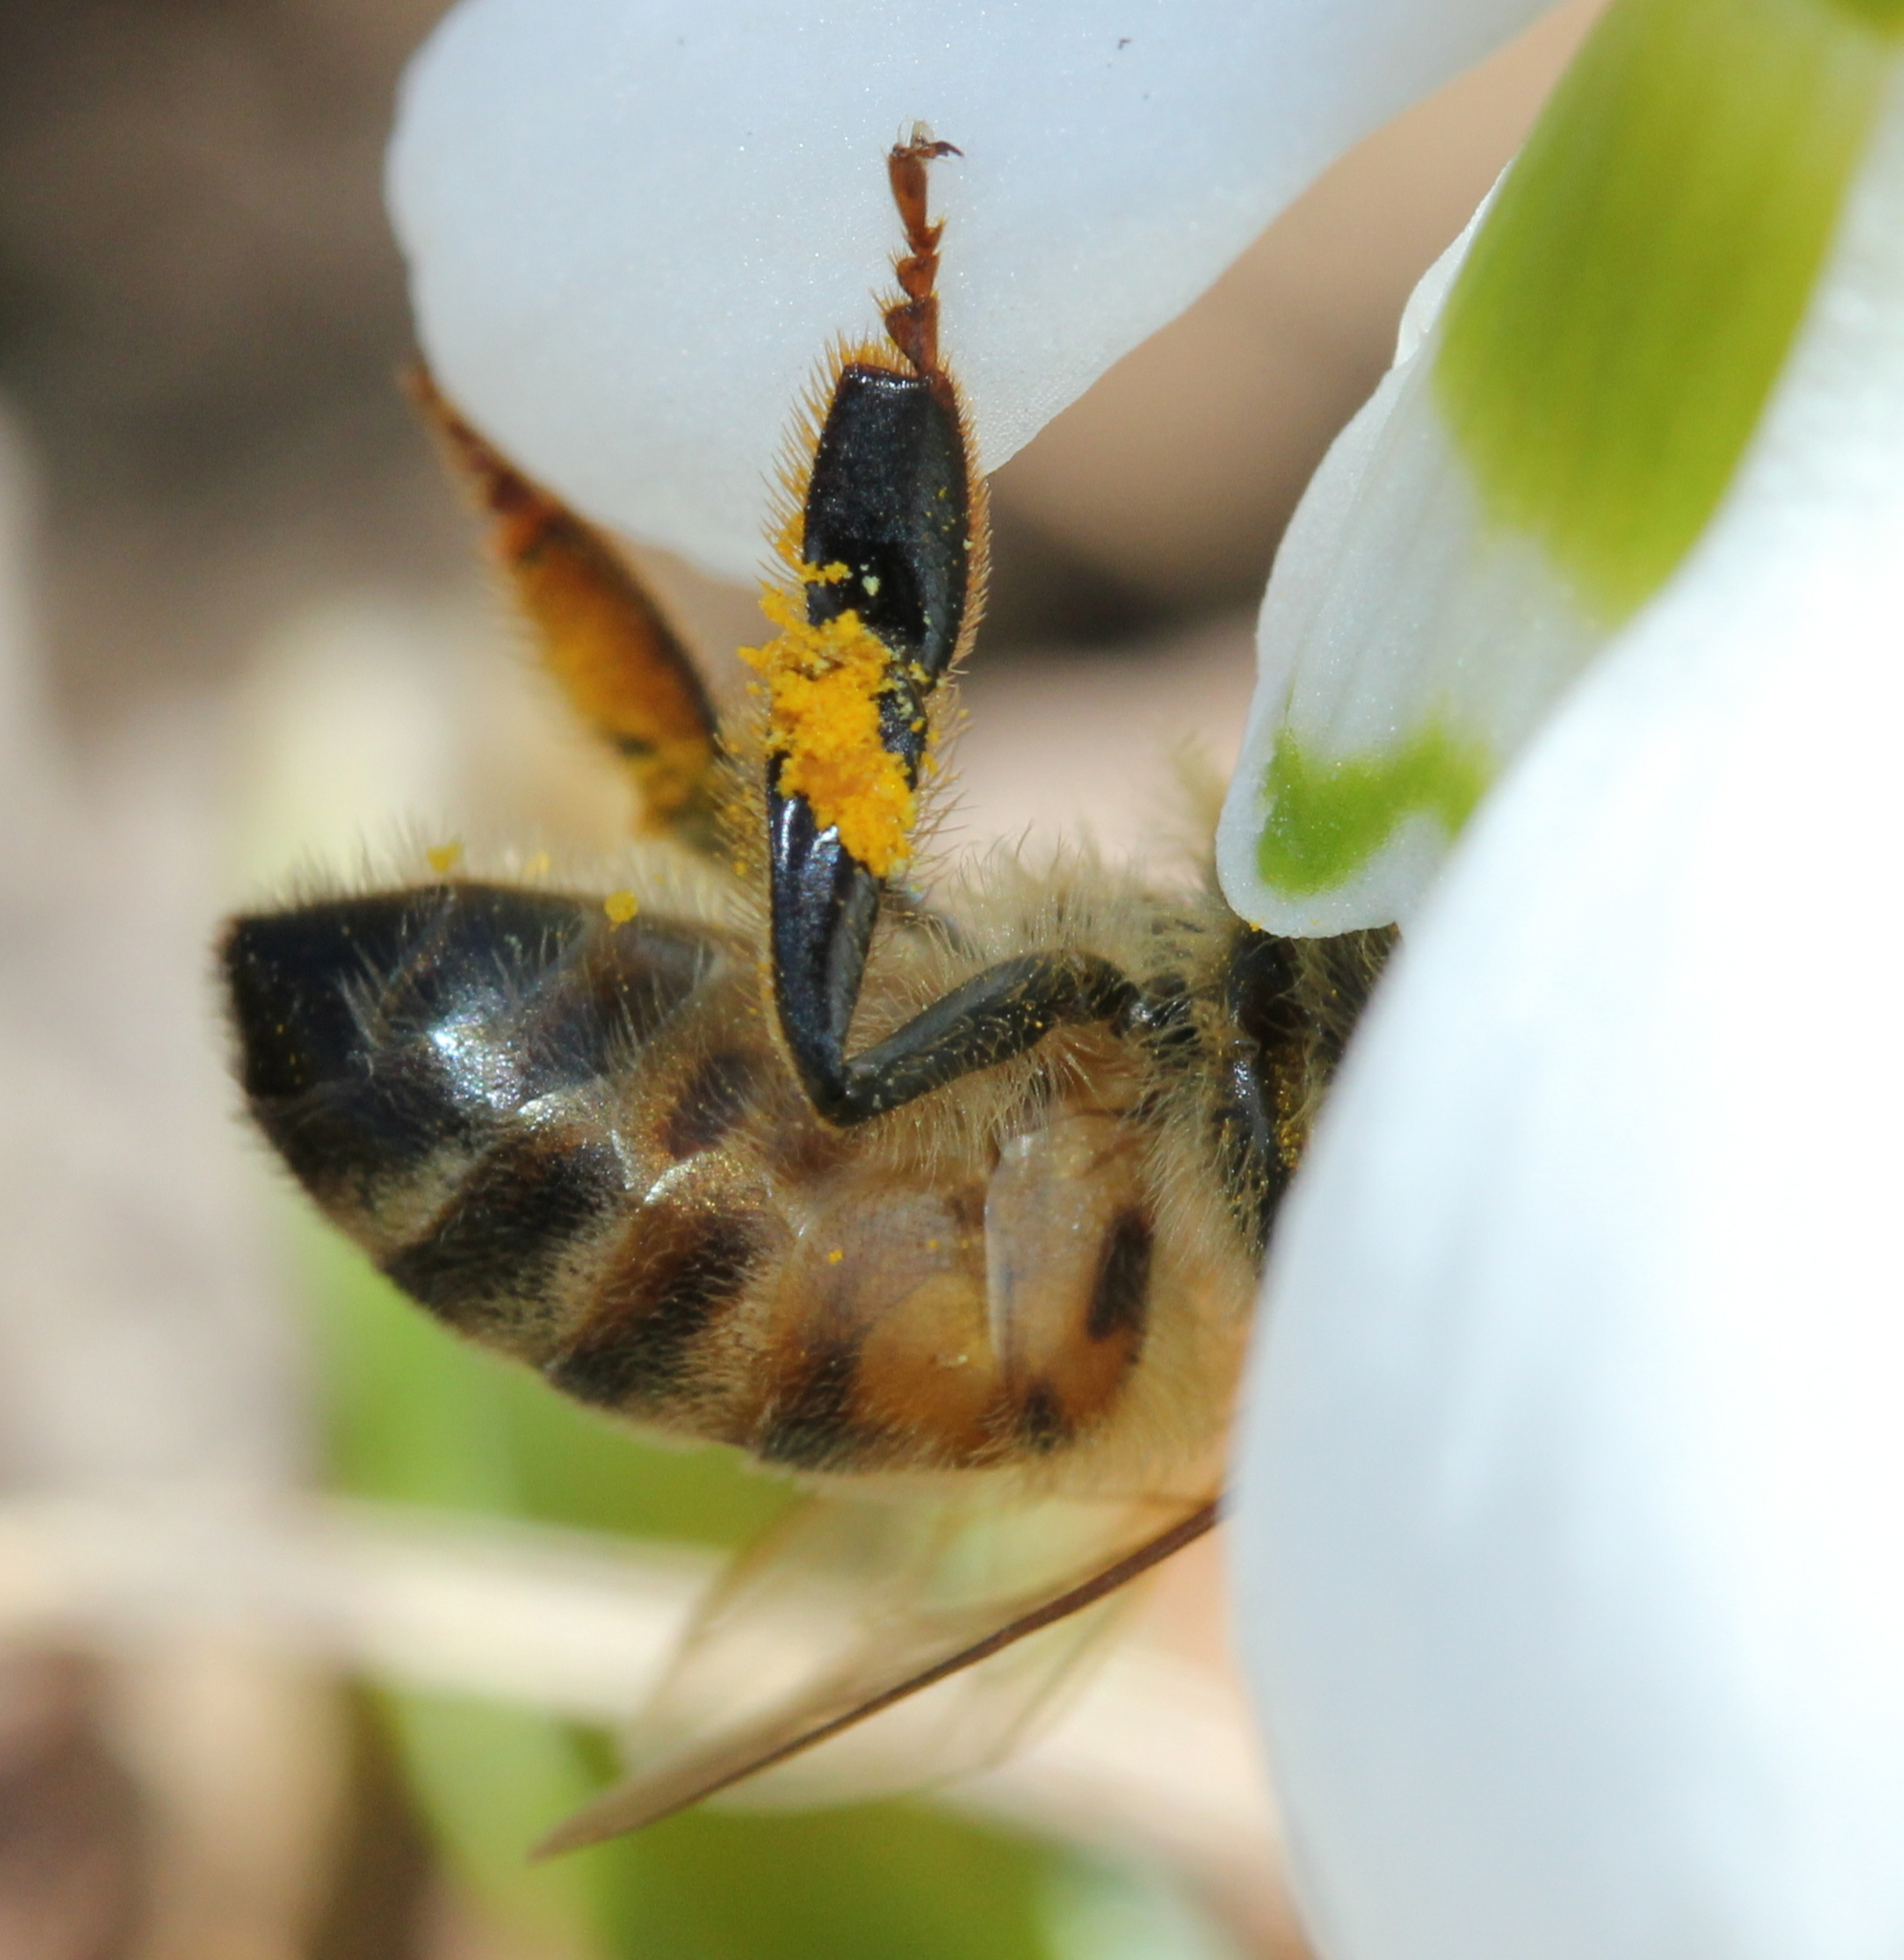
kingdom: Animalia
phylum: Arthropoda
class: Insecta
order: Hymenoptera
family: Apidae
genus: Apis
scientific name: Apis mellifera
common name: Honey bee
